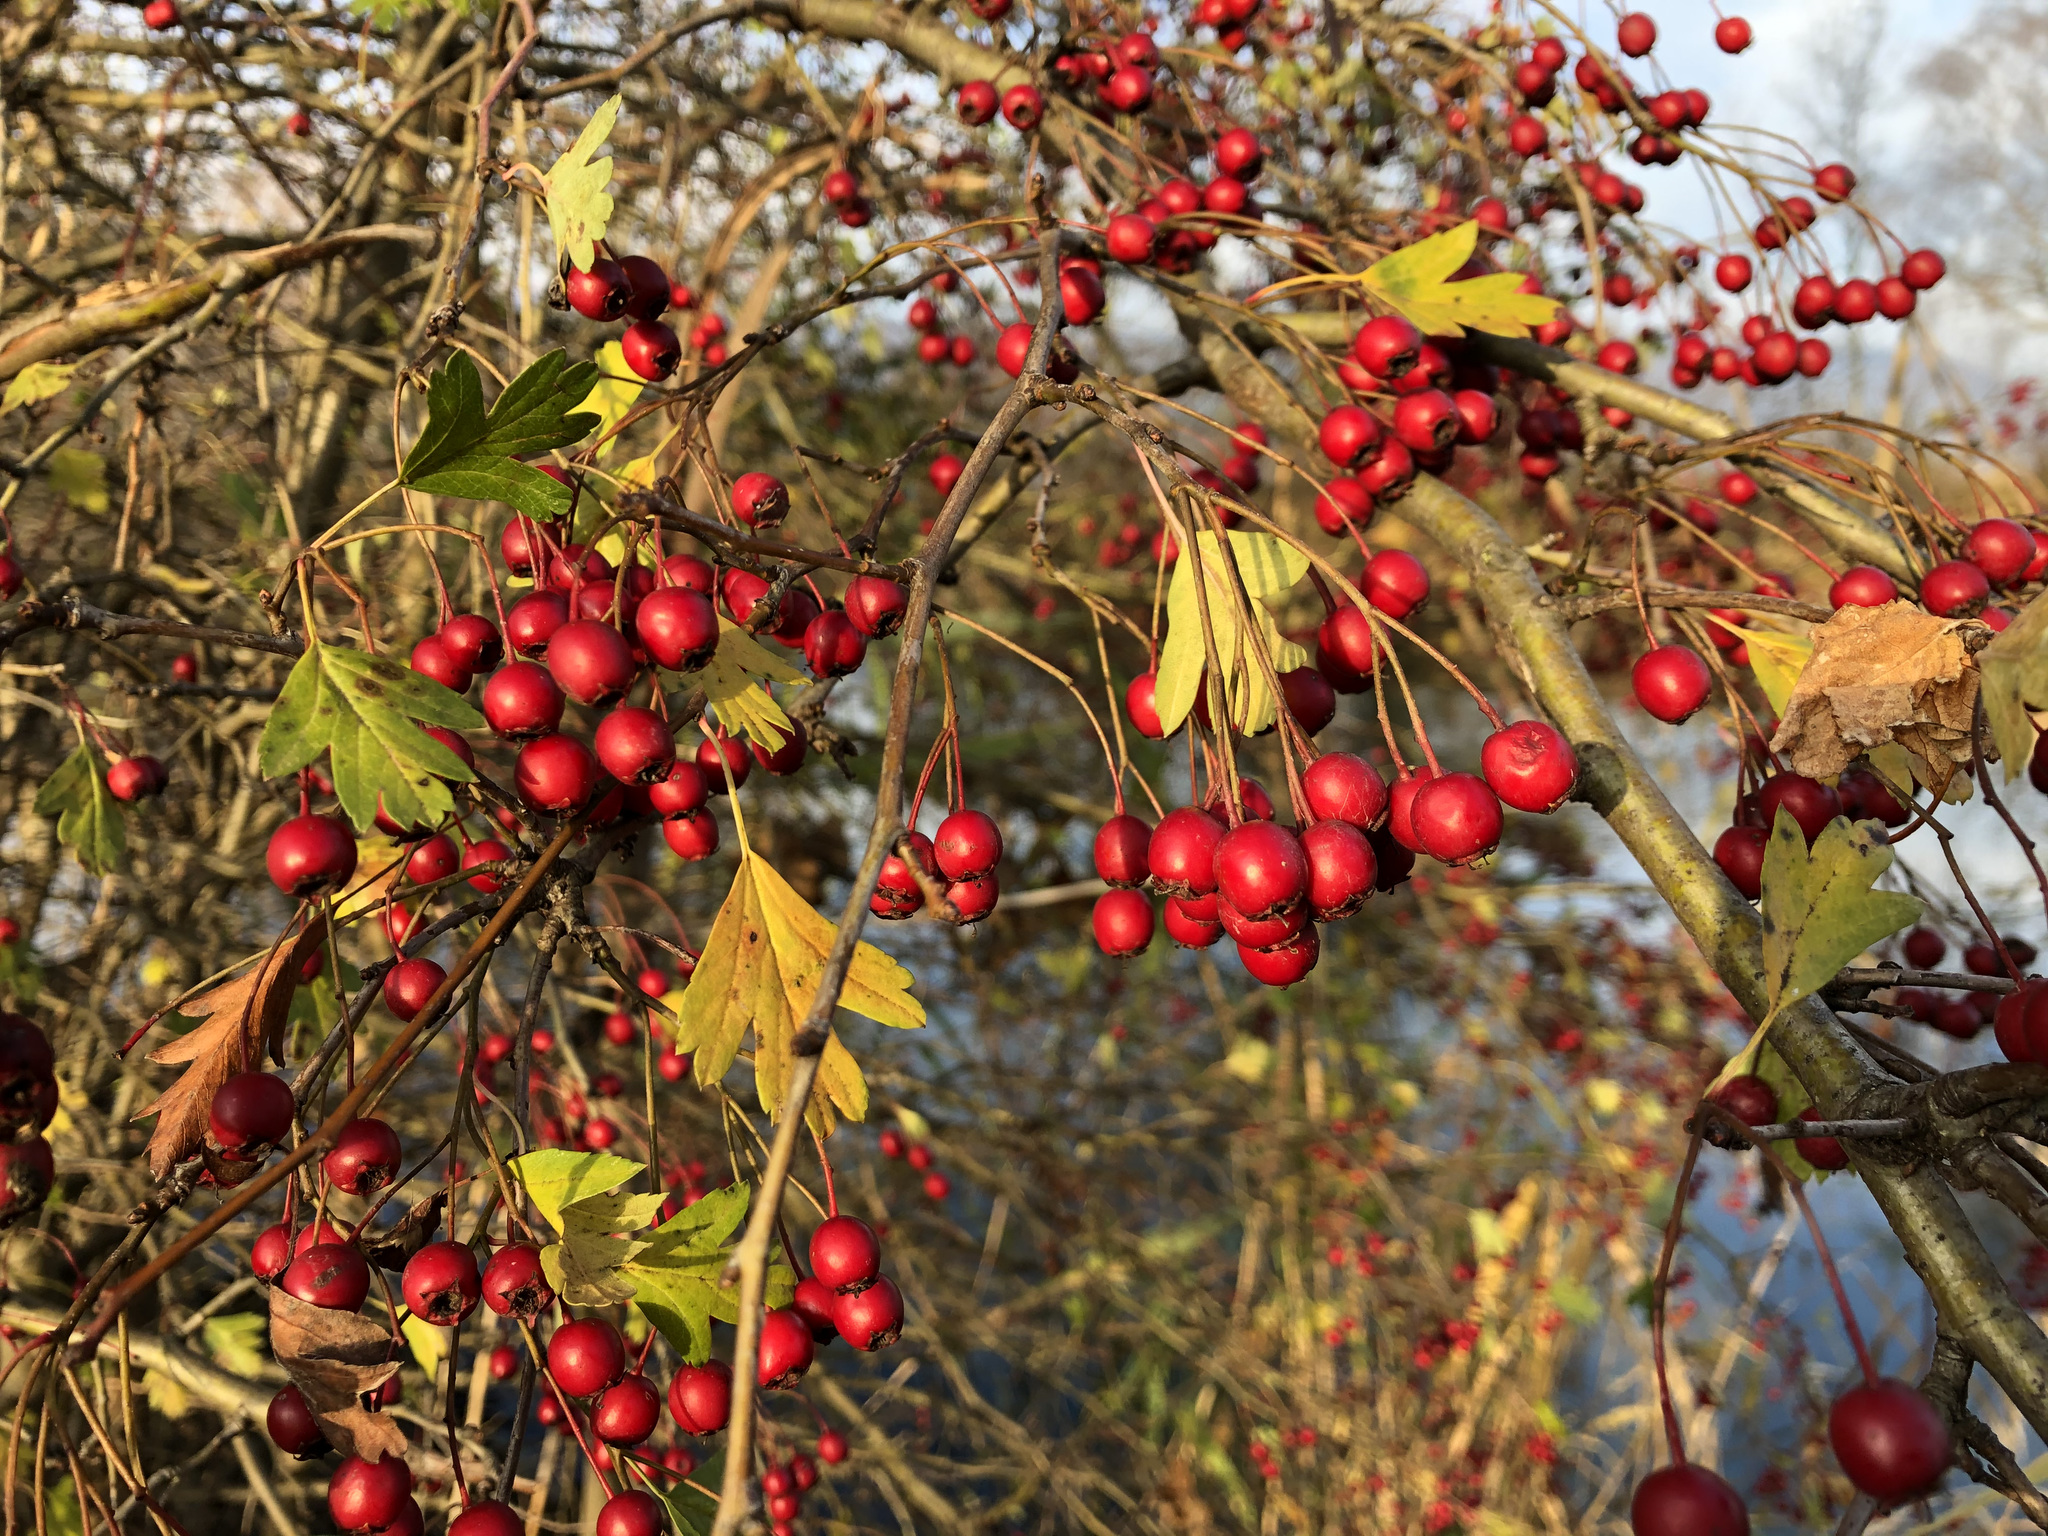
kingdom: Plantae
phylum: Tracheophyta
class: Magnoliopsida
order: Rosales
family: Rosaceae
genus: Crataegus
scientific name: Crataegus monogyna
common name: Hawthorn
